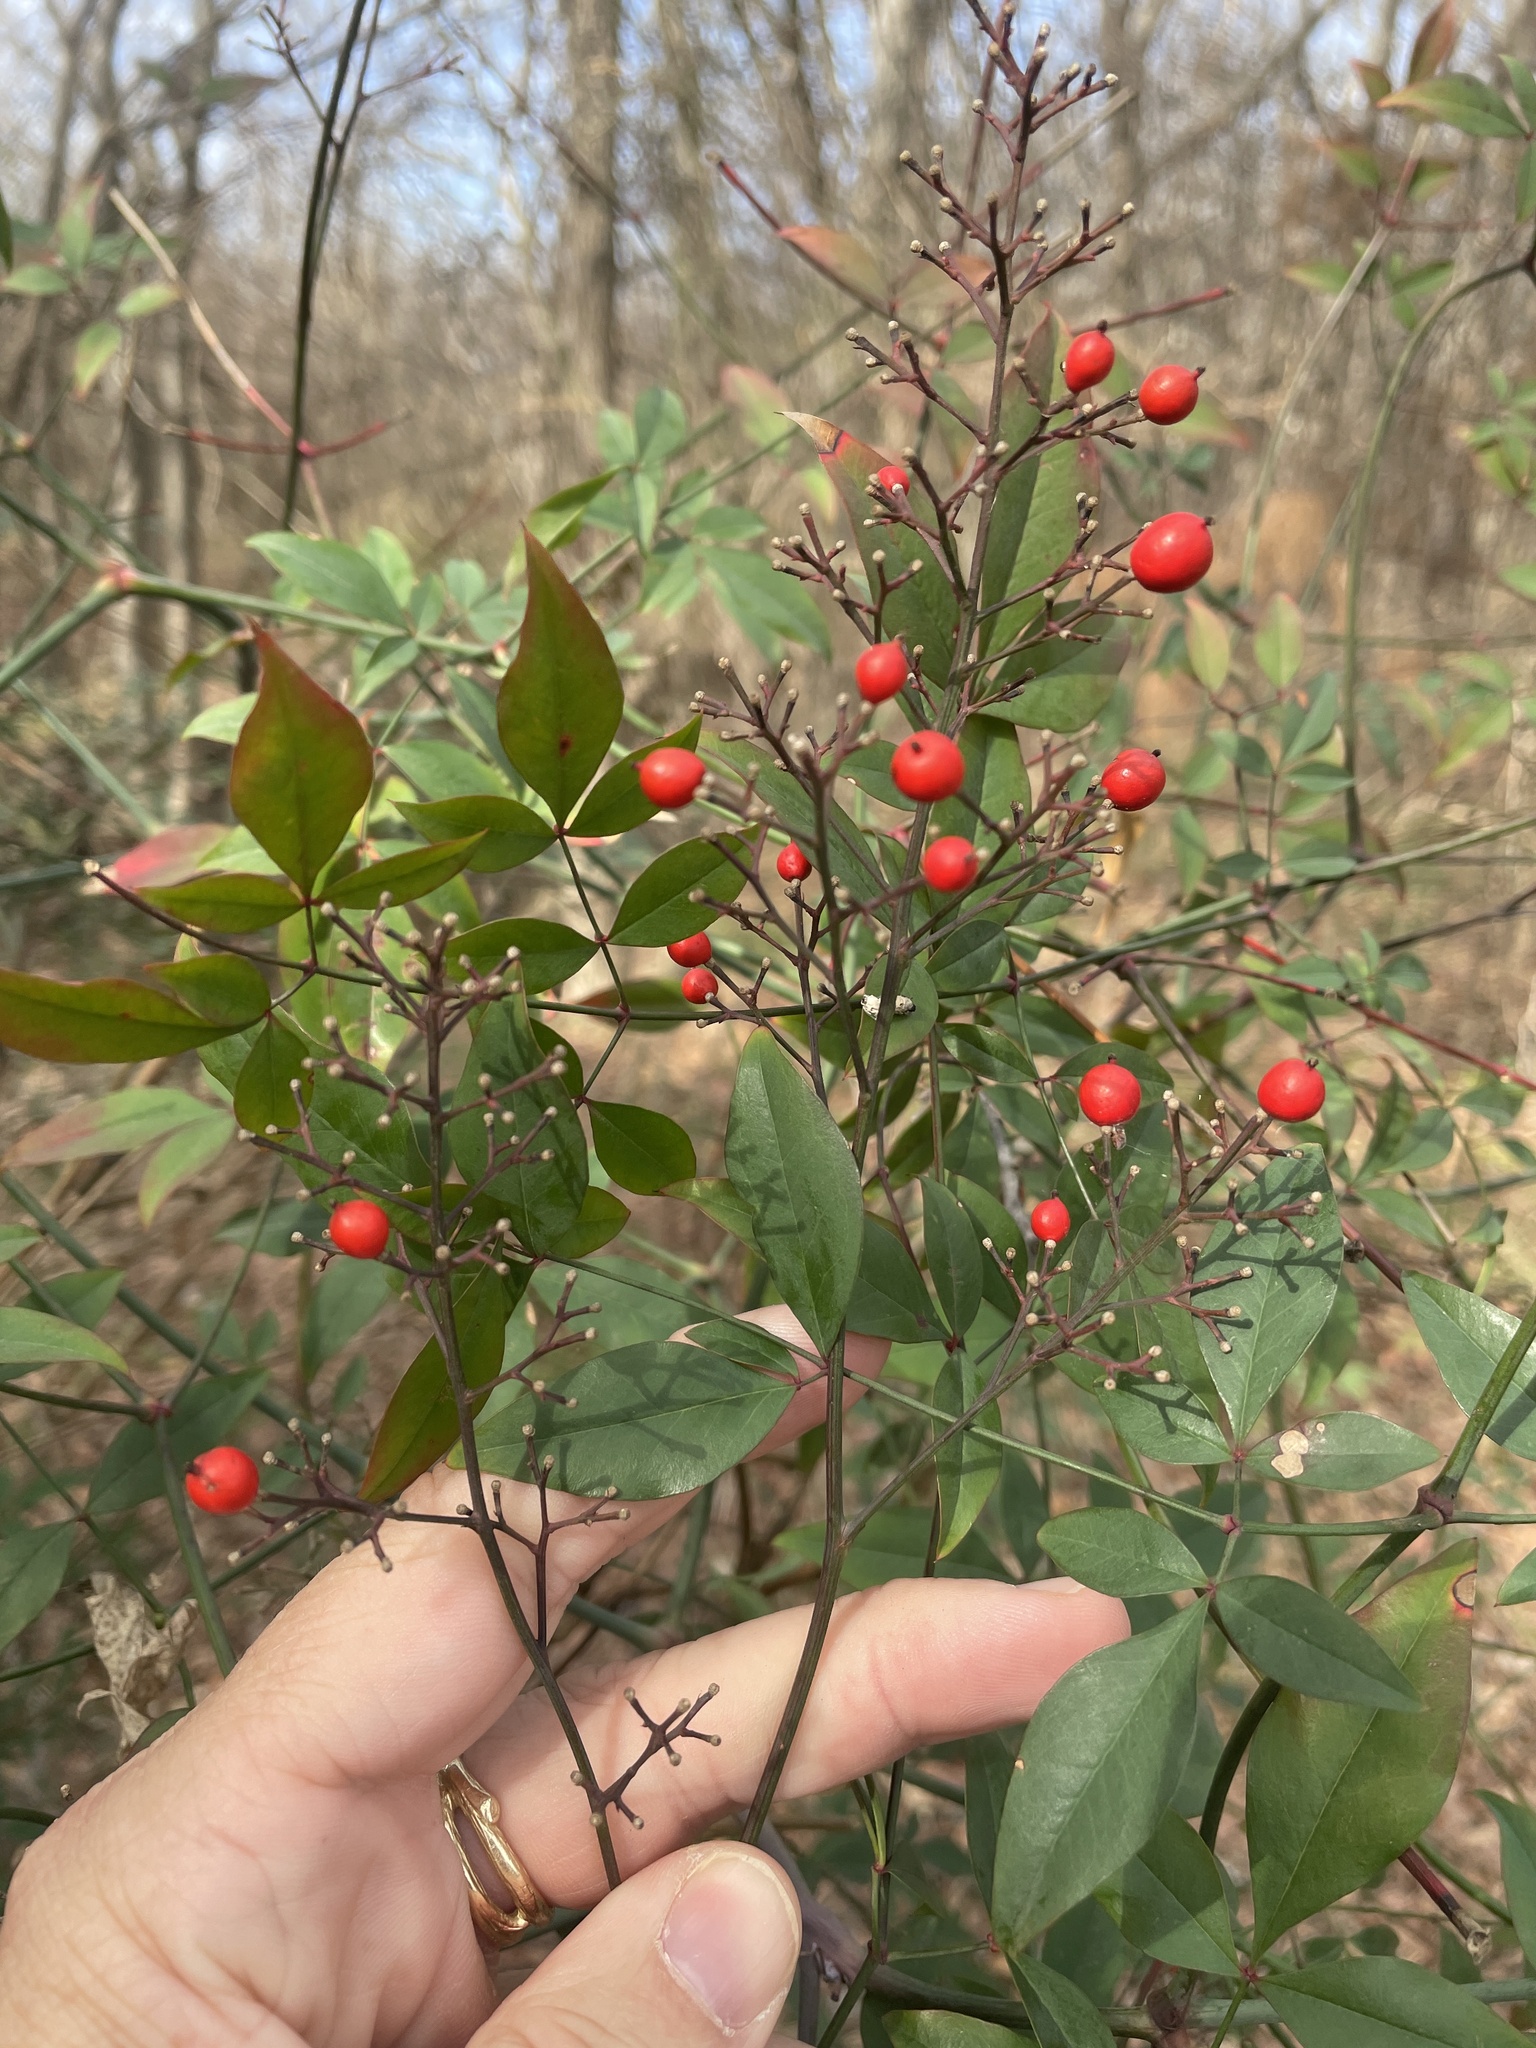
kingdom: Plantae
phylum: Tracheophyta
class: Magnoliopsida
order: Ranunculales
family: Berberidaceae
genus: Nandina
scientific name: Nandina domestica
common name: Sacred bamboo
